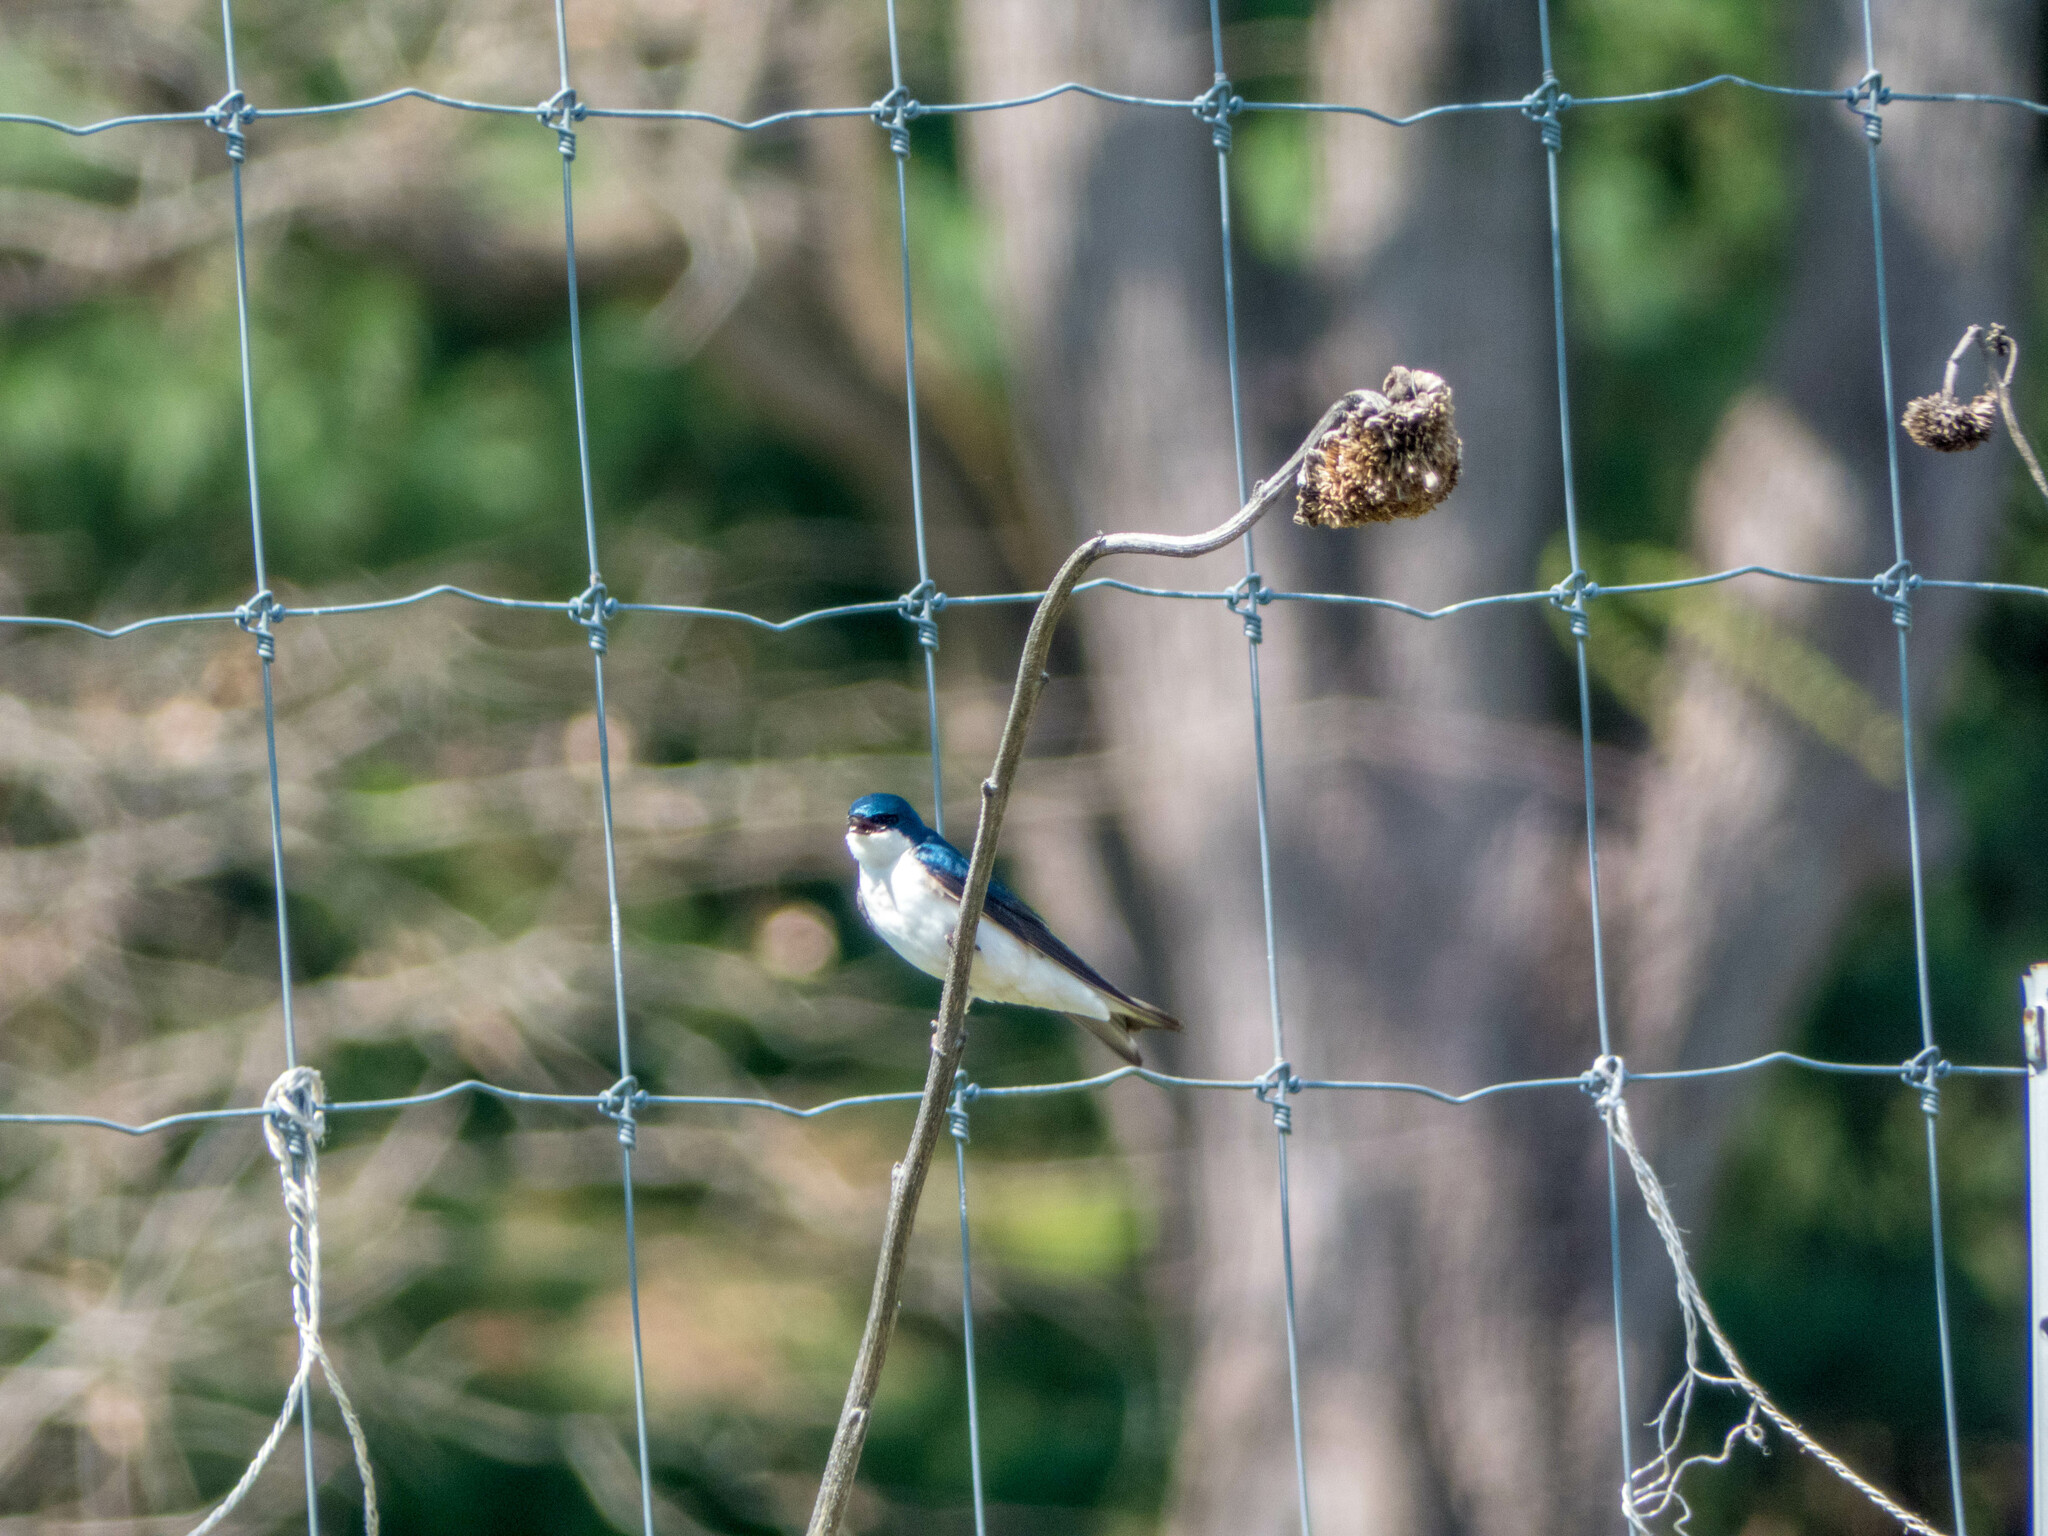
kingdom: Animalia
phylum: Chordata
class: Aves
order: Passeriformes
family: Hirundinidae
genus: Tachycineta
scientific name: Tachycineta bicolor
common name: Tree swallow
